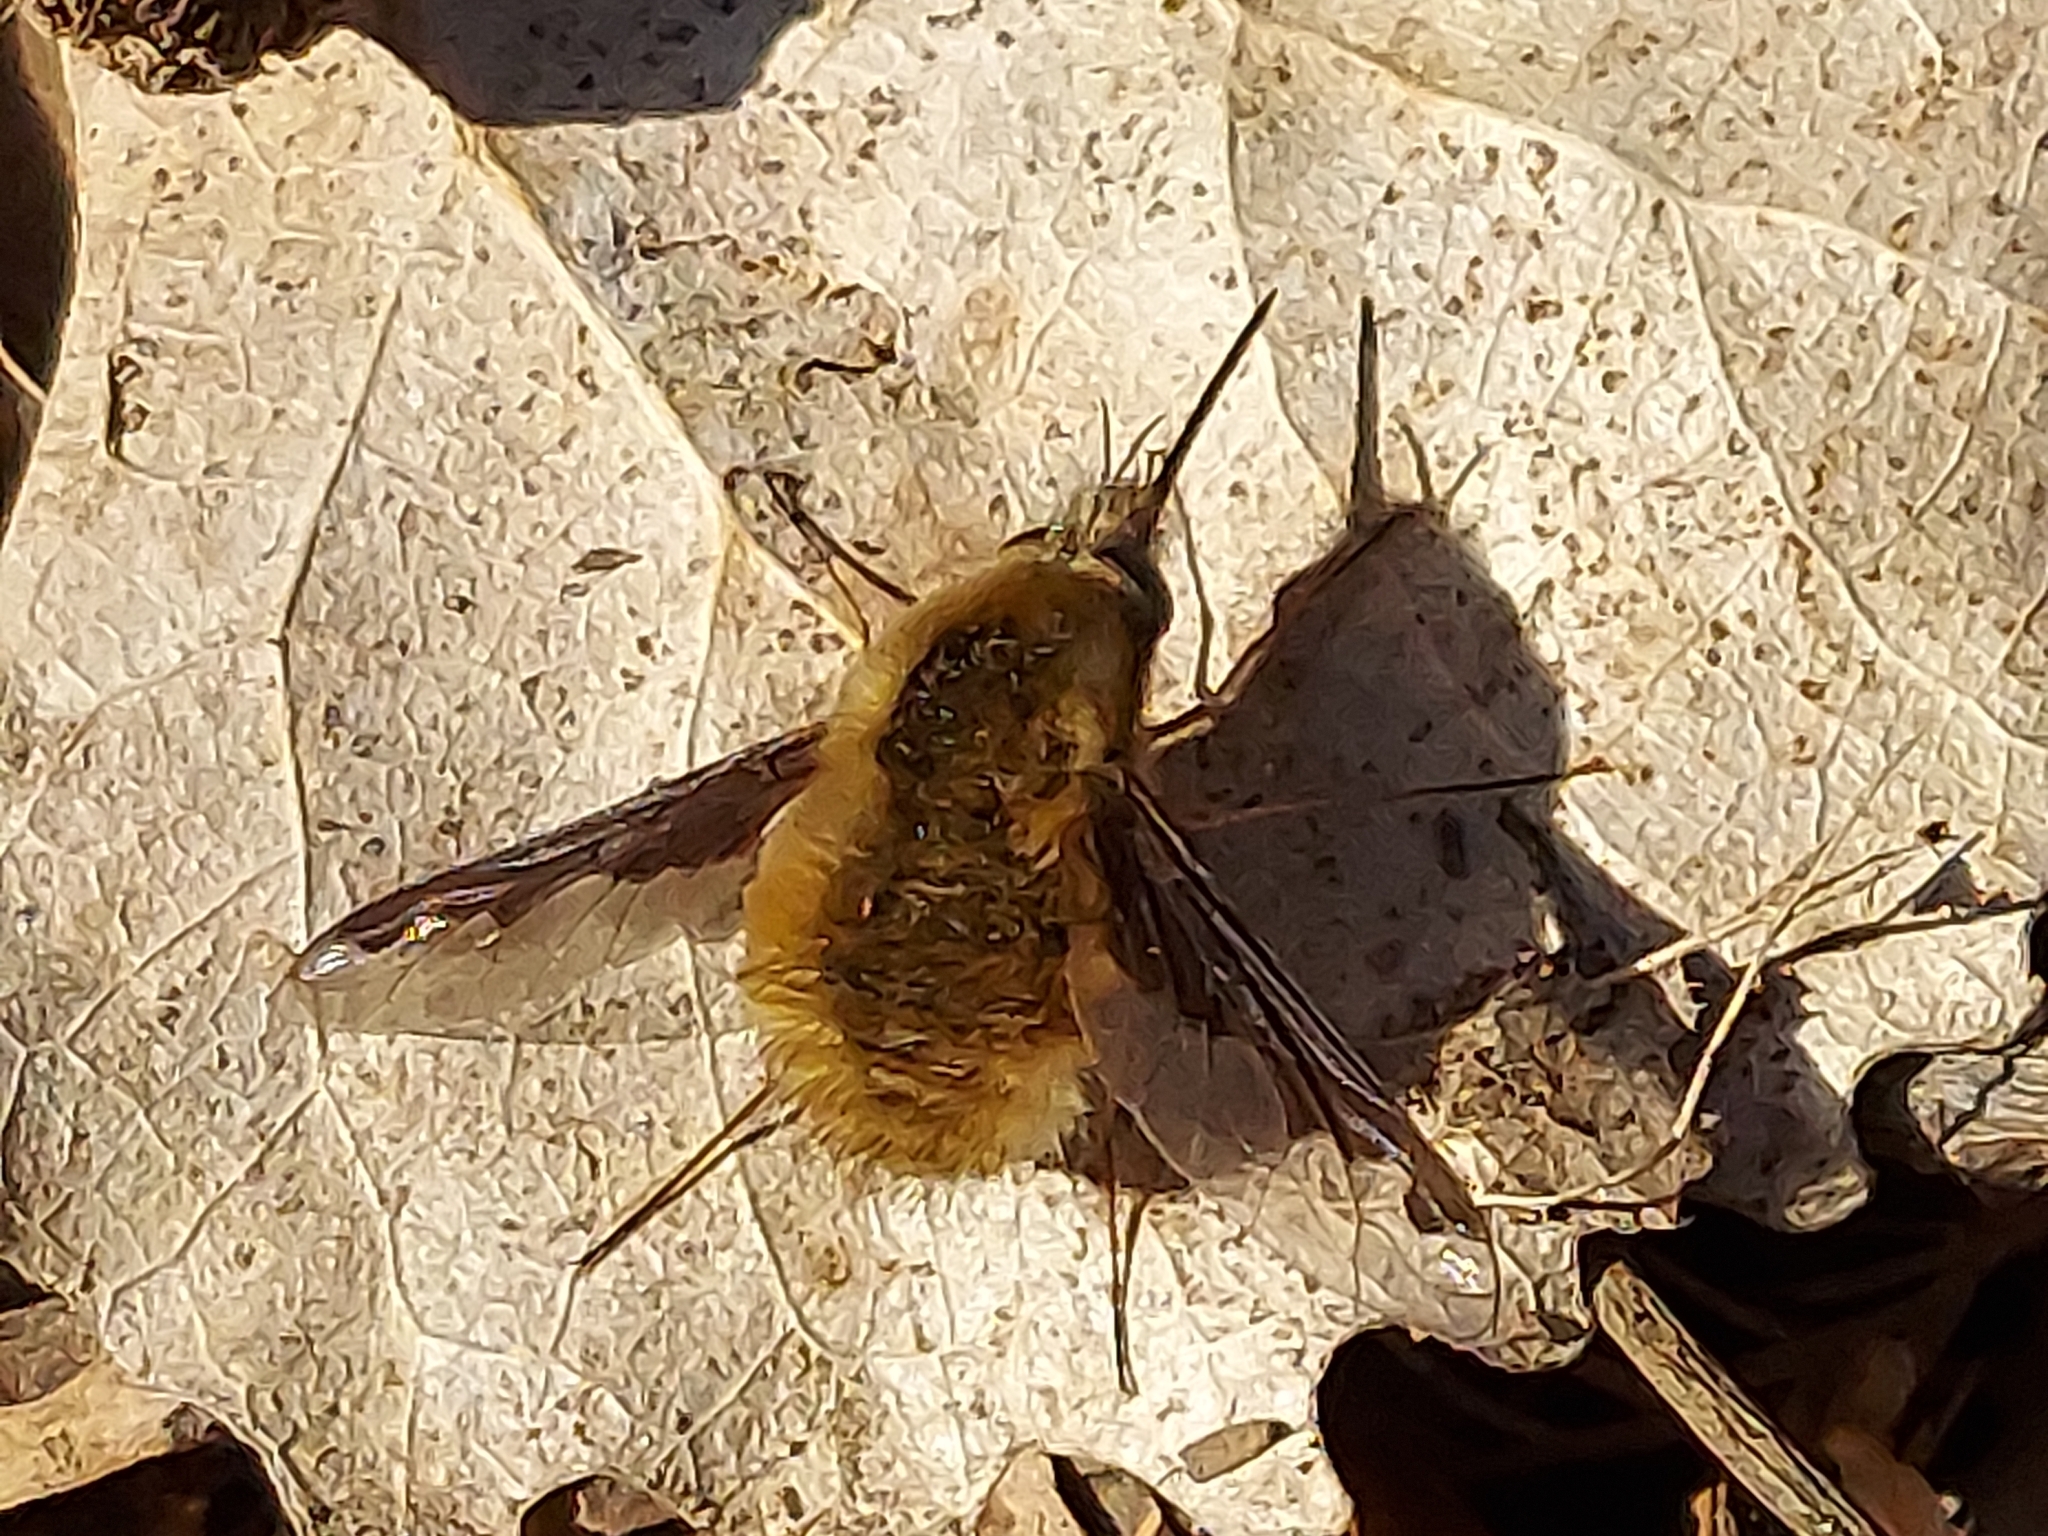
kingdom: Animalia
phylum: Arthropoda
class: Insecta
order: Diptera
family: Bombyliidae
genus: Bombylius
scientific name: Bombylius major
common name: Bee fly
